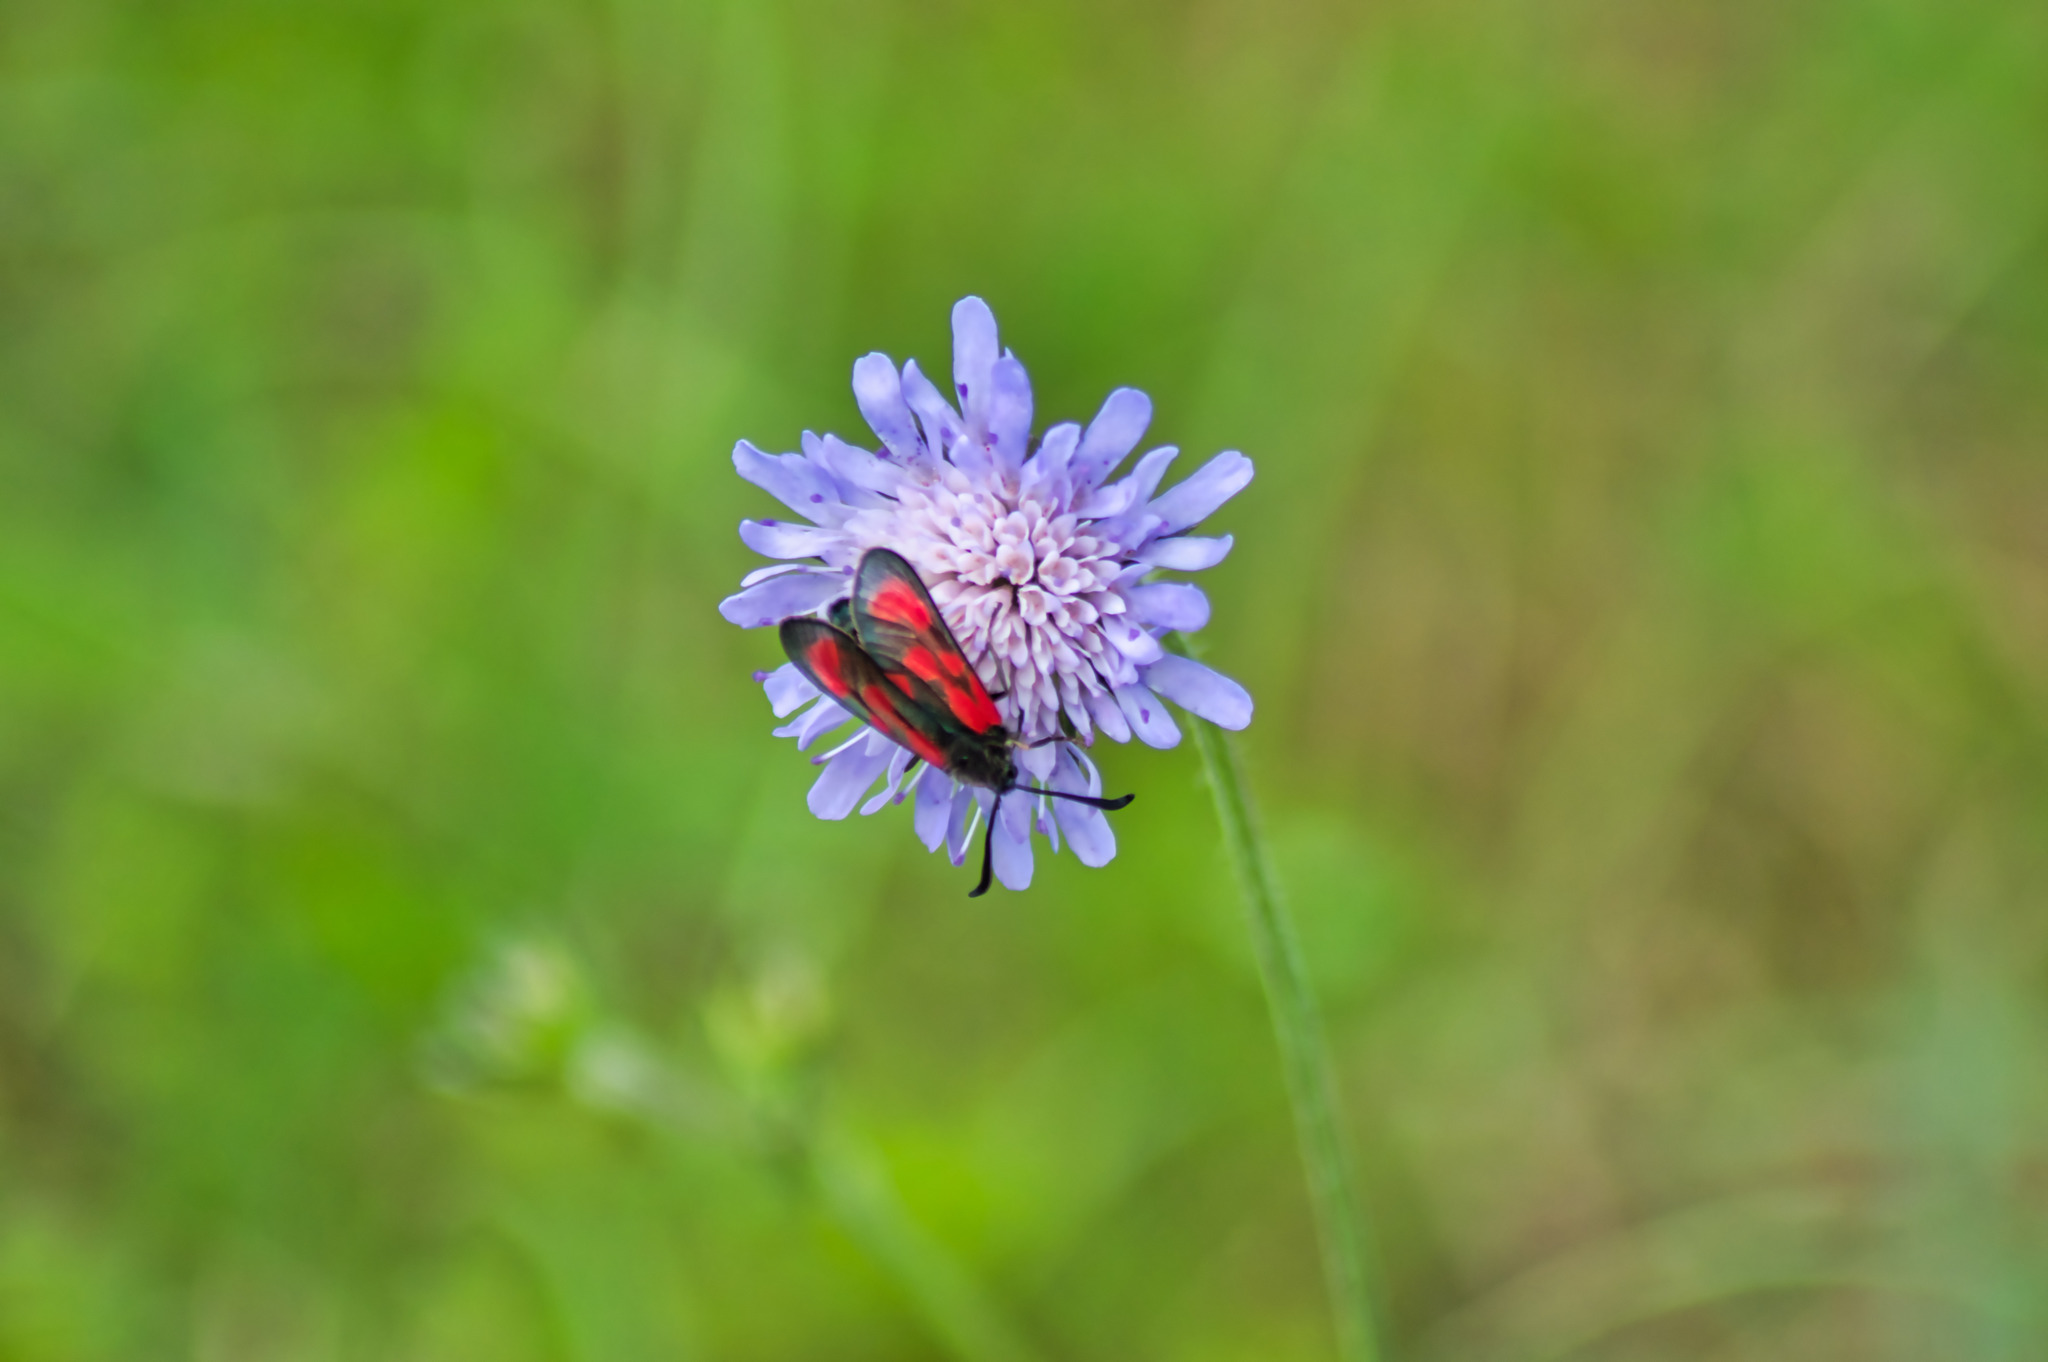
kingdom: Animalia
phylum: Arthropoda
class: Insecta
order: Lepidoptera
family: Zygaenidae
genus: Zygaena
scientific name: Zygaena loti
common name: Slender scotch burnet
